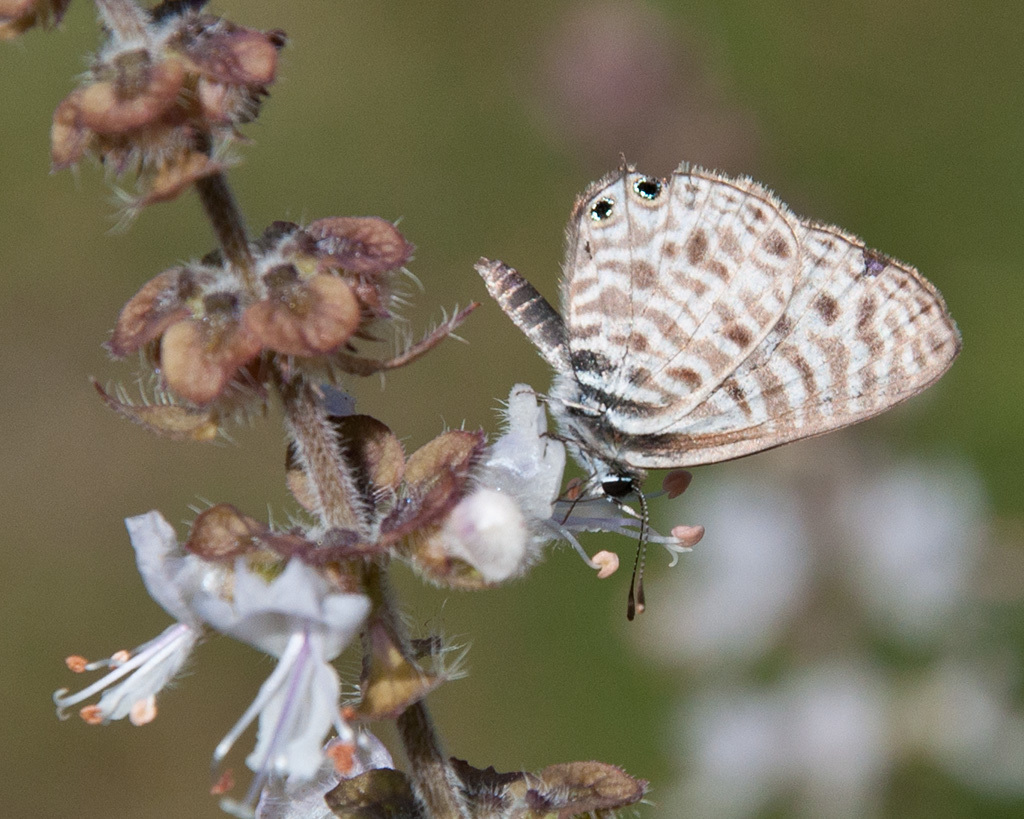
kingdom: Animalia
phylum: Arthropoda
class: Insecta
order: Lepidoptera
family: Lycaenidae
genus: Leptotes
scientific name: Leptotes
